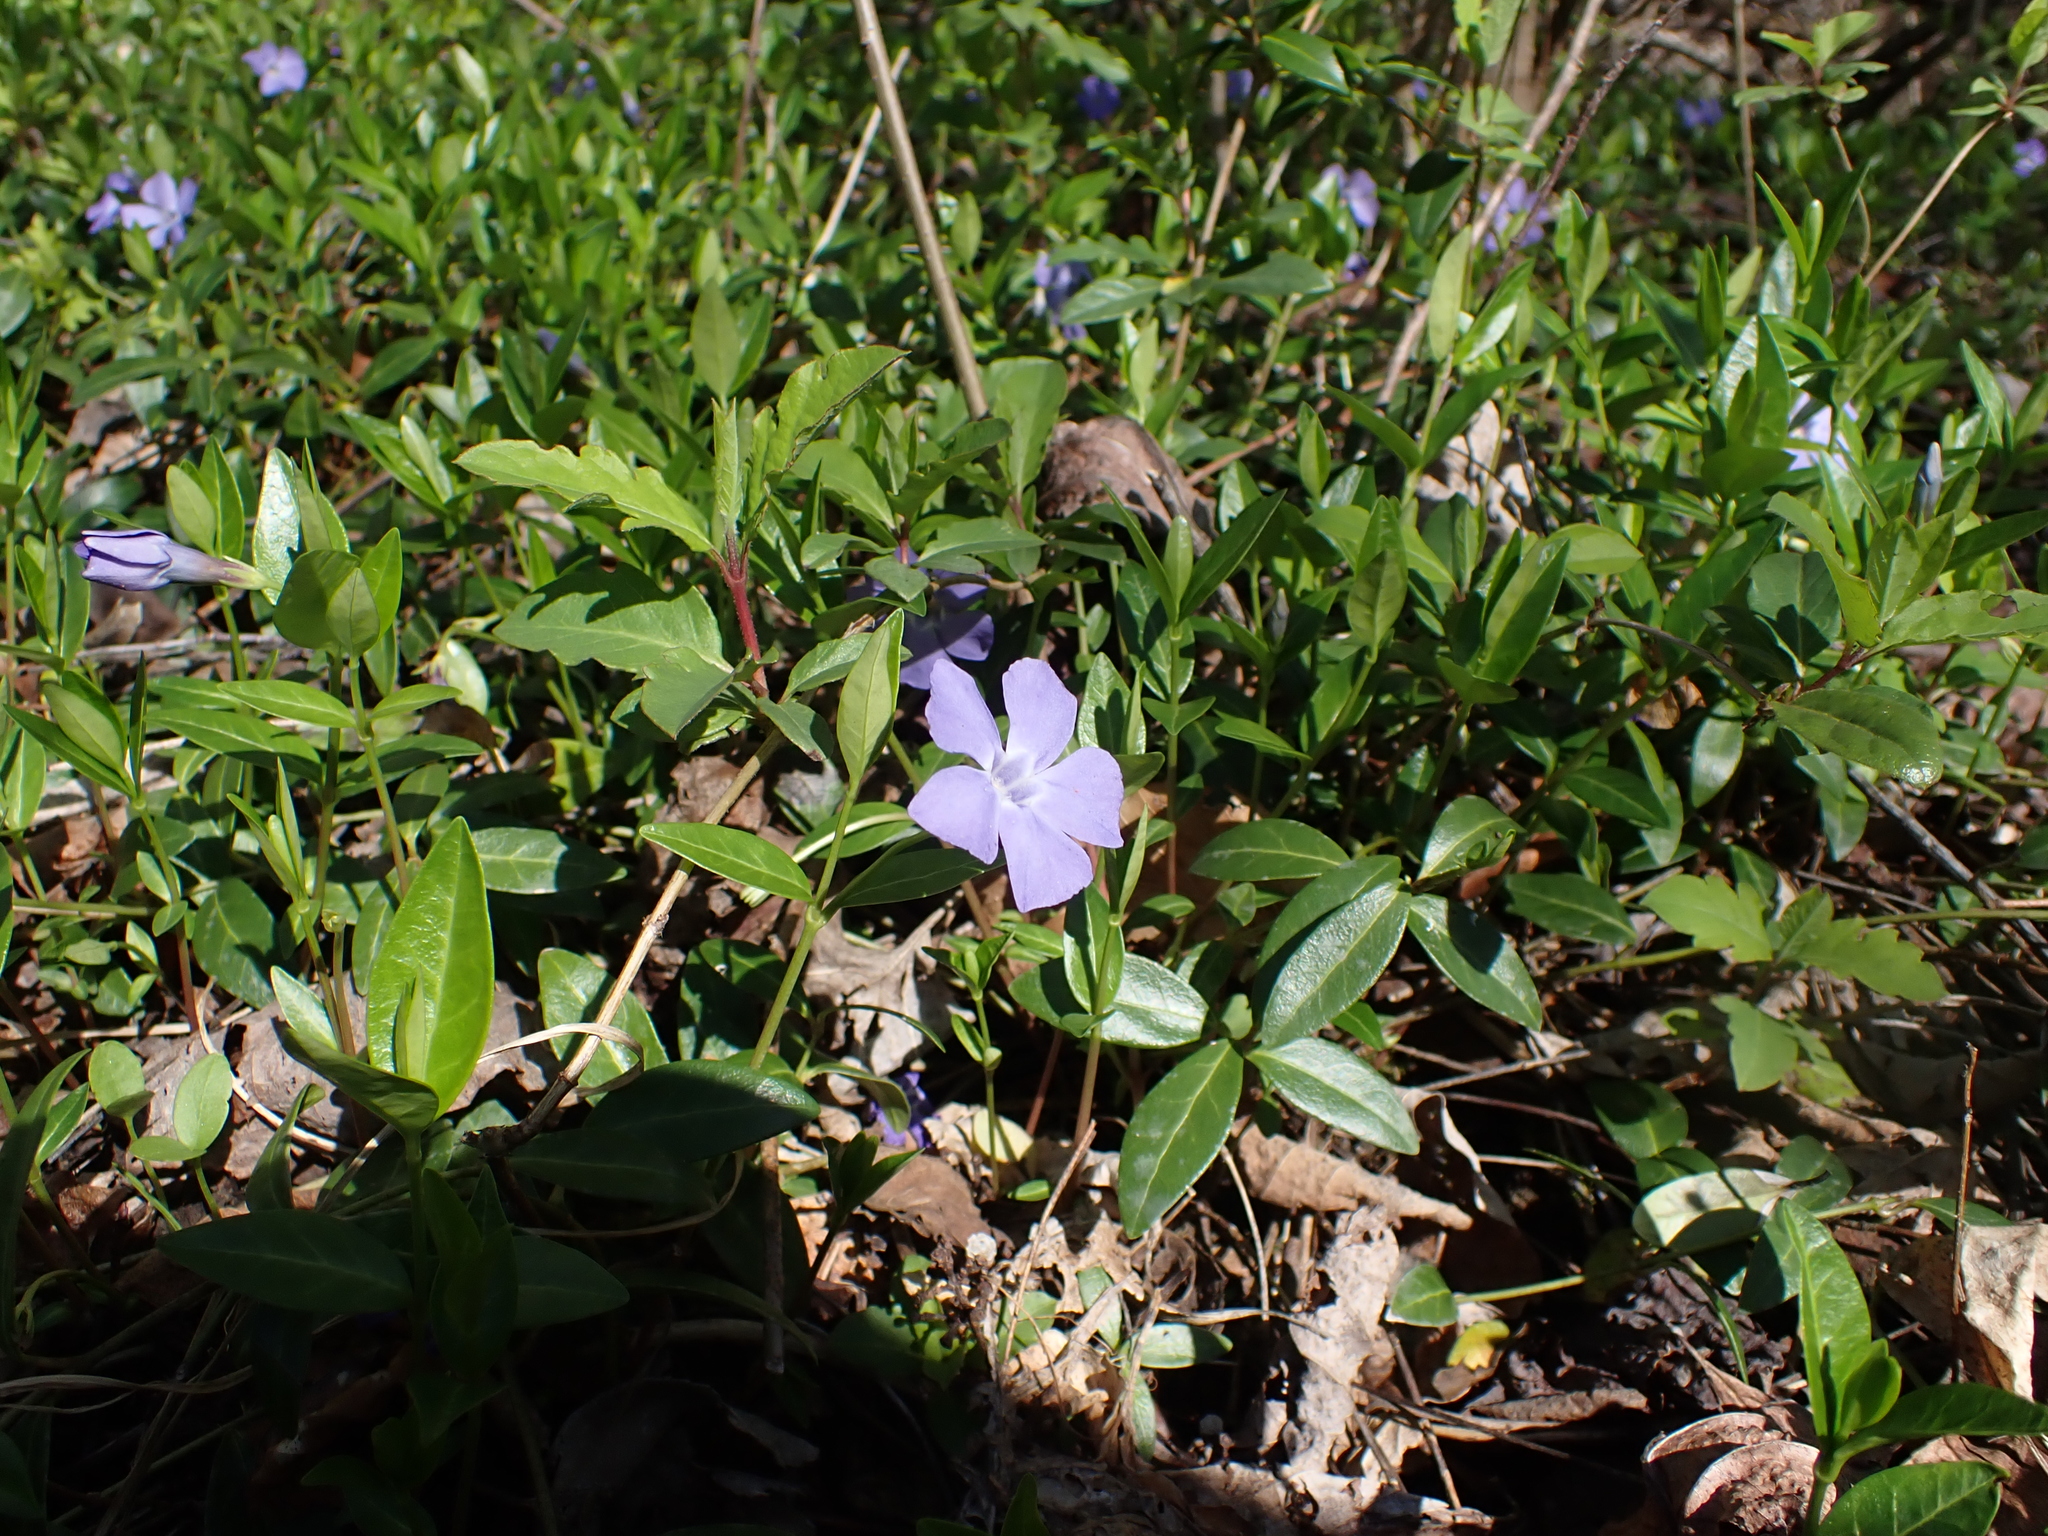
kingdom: Plantae
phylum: Tracheophyta
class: Magnoliopsida
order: Gentianales
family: Apocynaceae
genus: Vinca
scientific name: Vinca minor
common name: Lesser periwinkle
